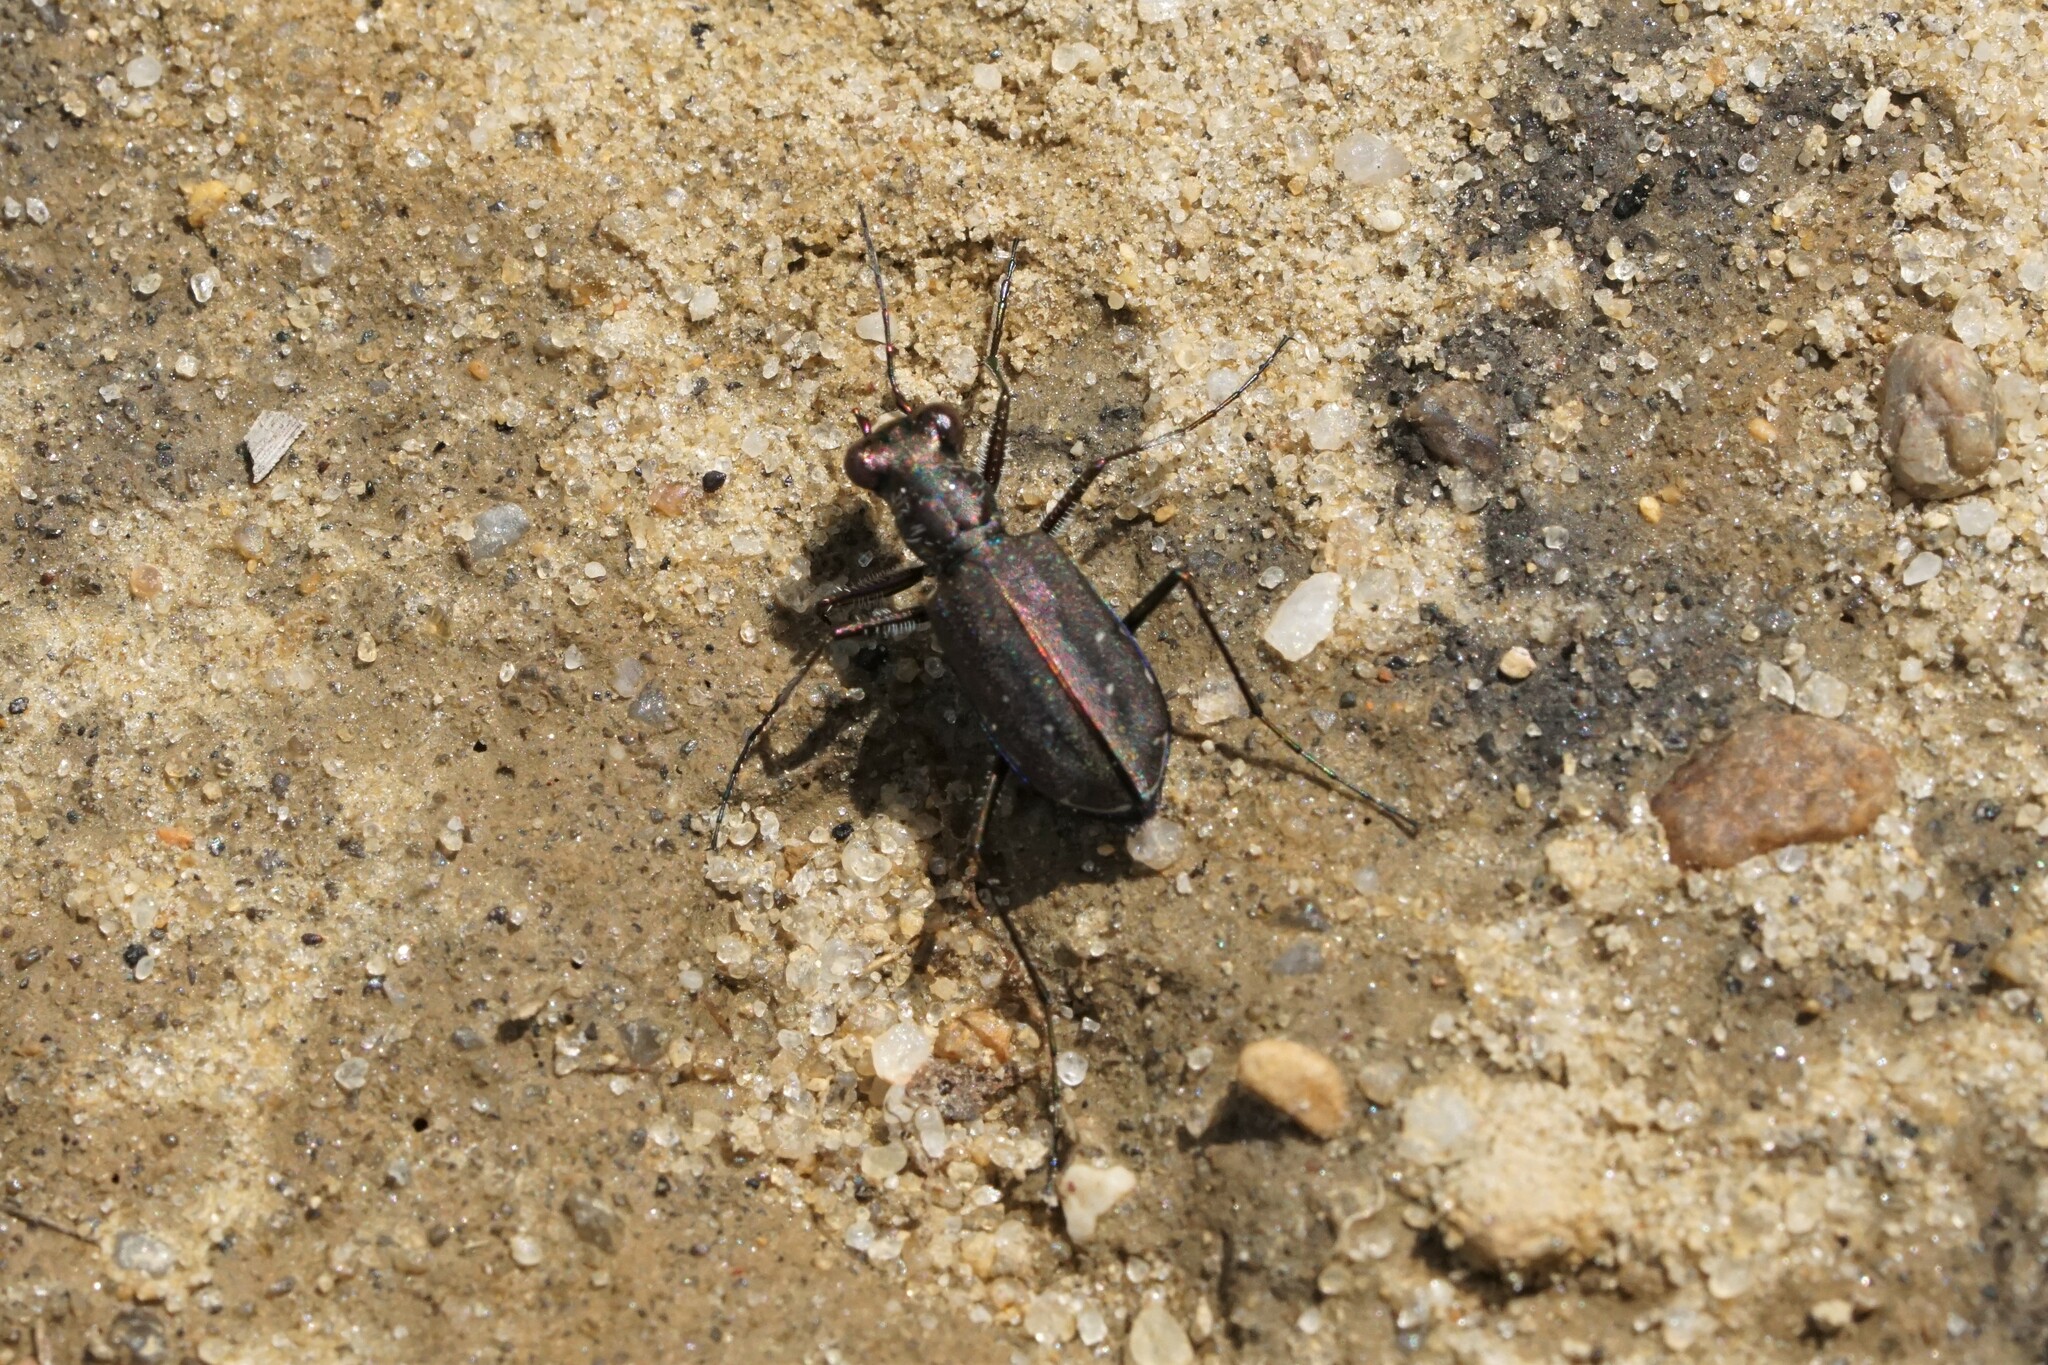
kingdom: Animalia
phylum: Arthropoda
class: Insecta
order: Coleoptera
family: Carabidae
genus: Cicindela
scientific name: Cicindela punctulata
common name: Punctured tiger beetle
